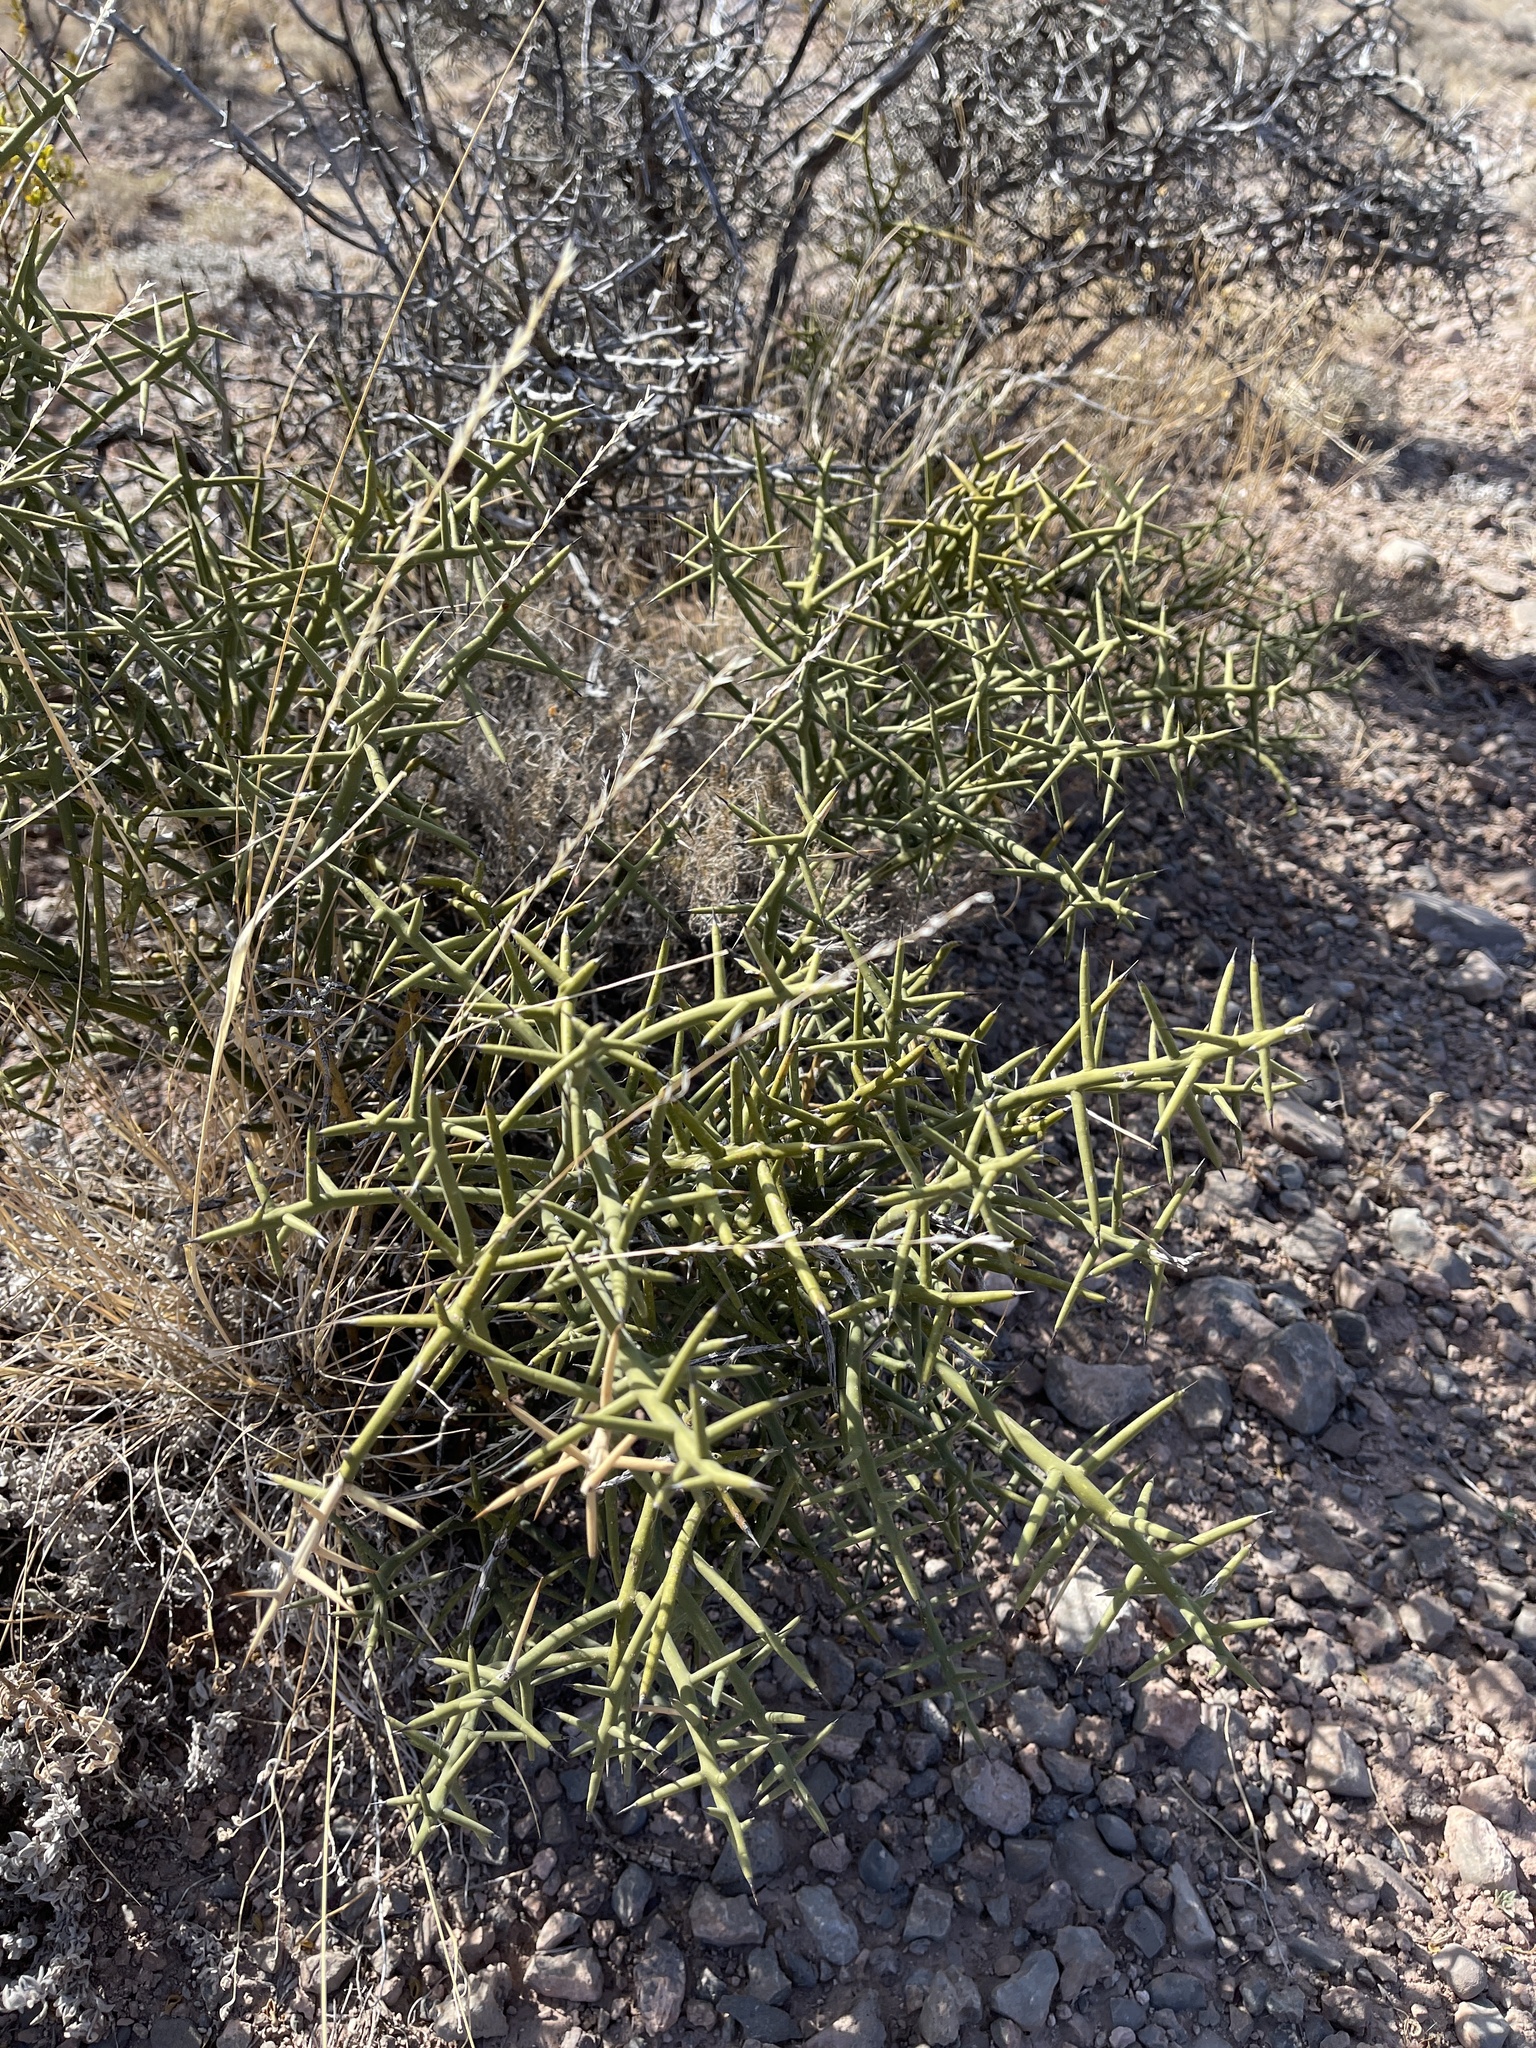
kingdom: Plantae
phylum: Tracheophyta
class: Magnoliopsida
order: Brassicales
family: Koeberliniaceae
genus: Koeberlinia
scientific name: Koeberlinia spinosa
